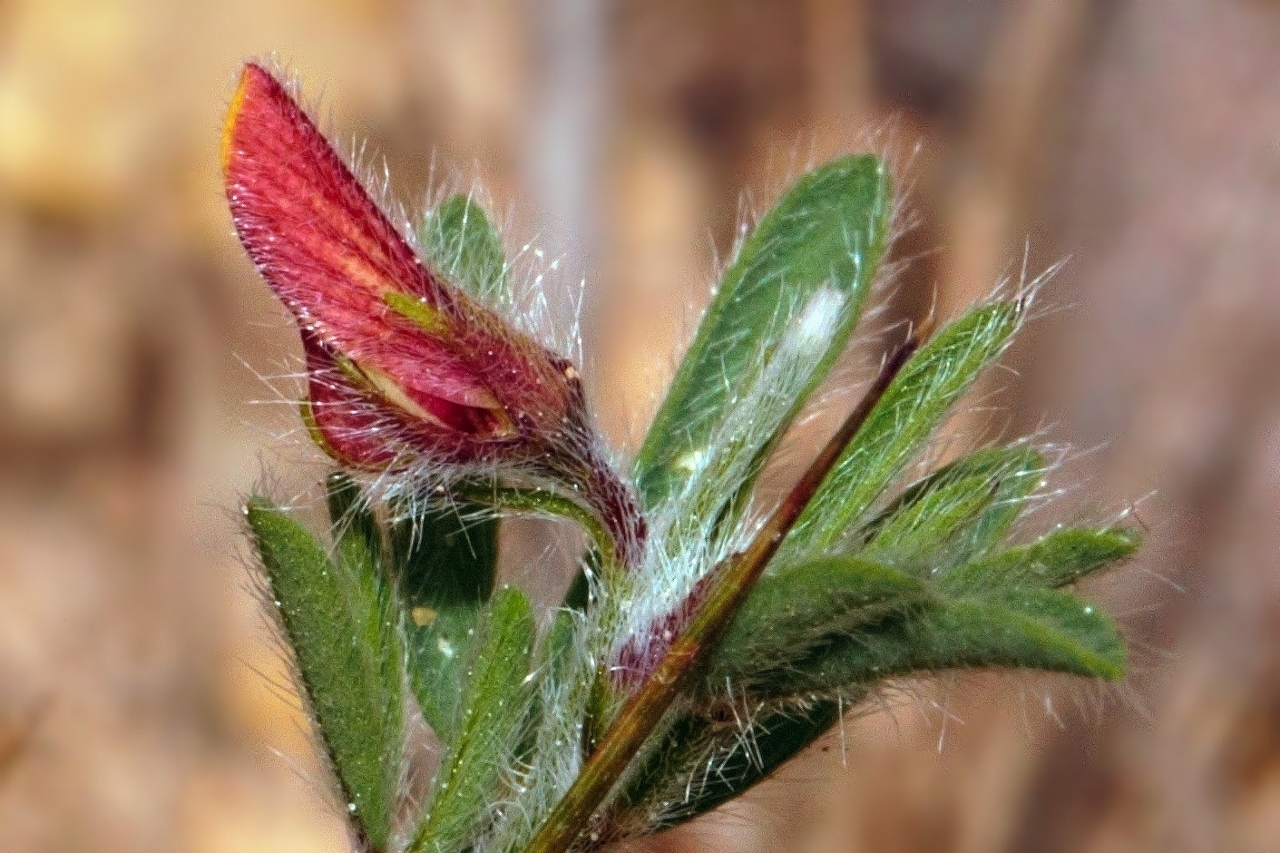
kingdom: Plantae
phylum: Tracheophyta
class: Magnoliopsida
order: Fabales
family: Fabaceae
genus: Crotalaria
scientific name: Crotalaria alexandri
